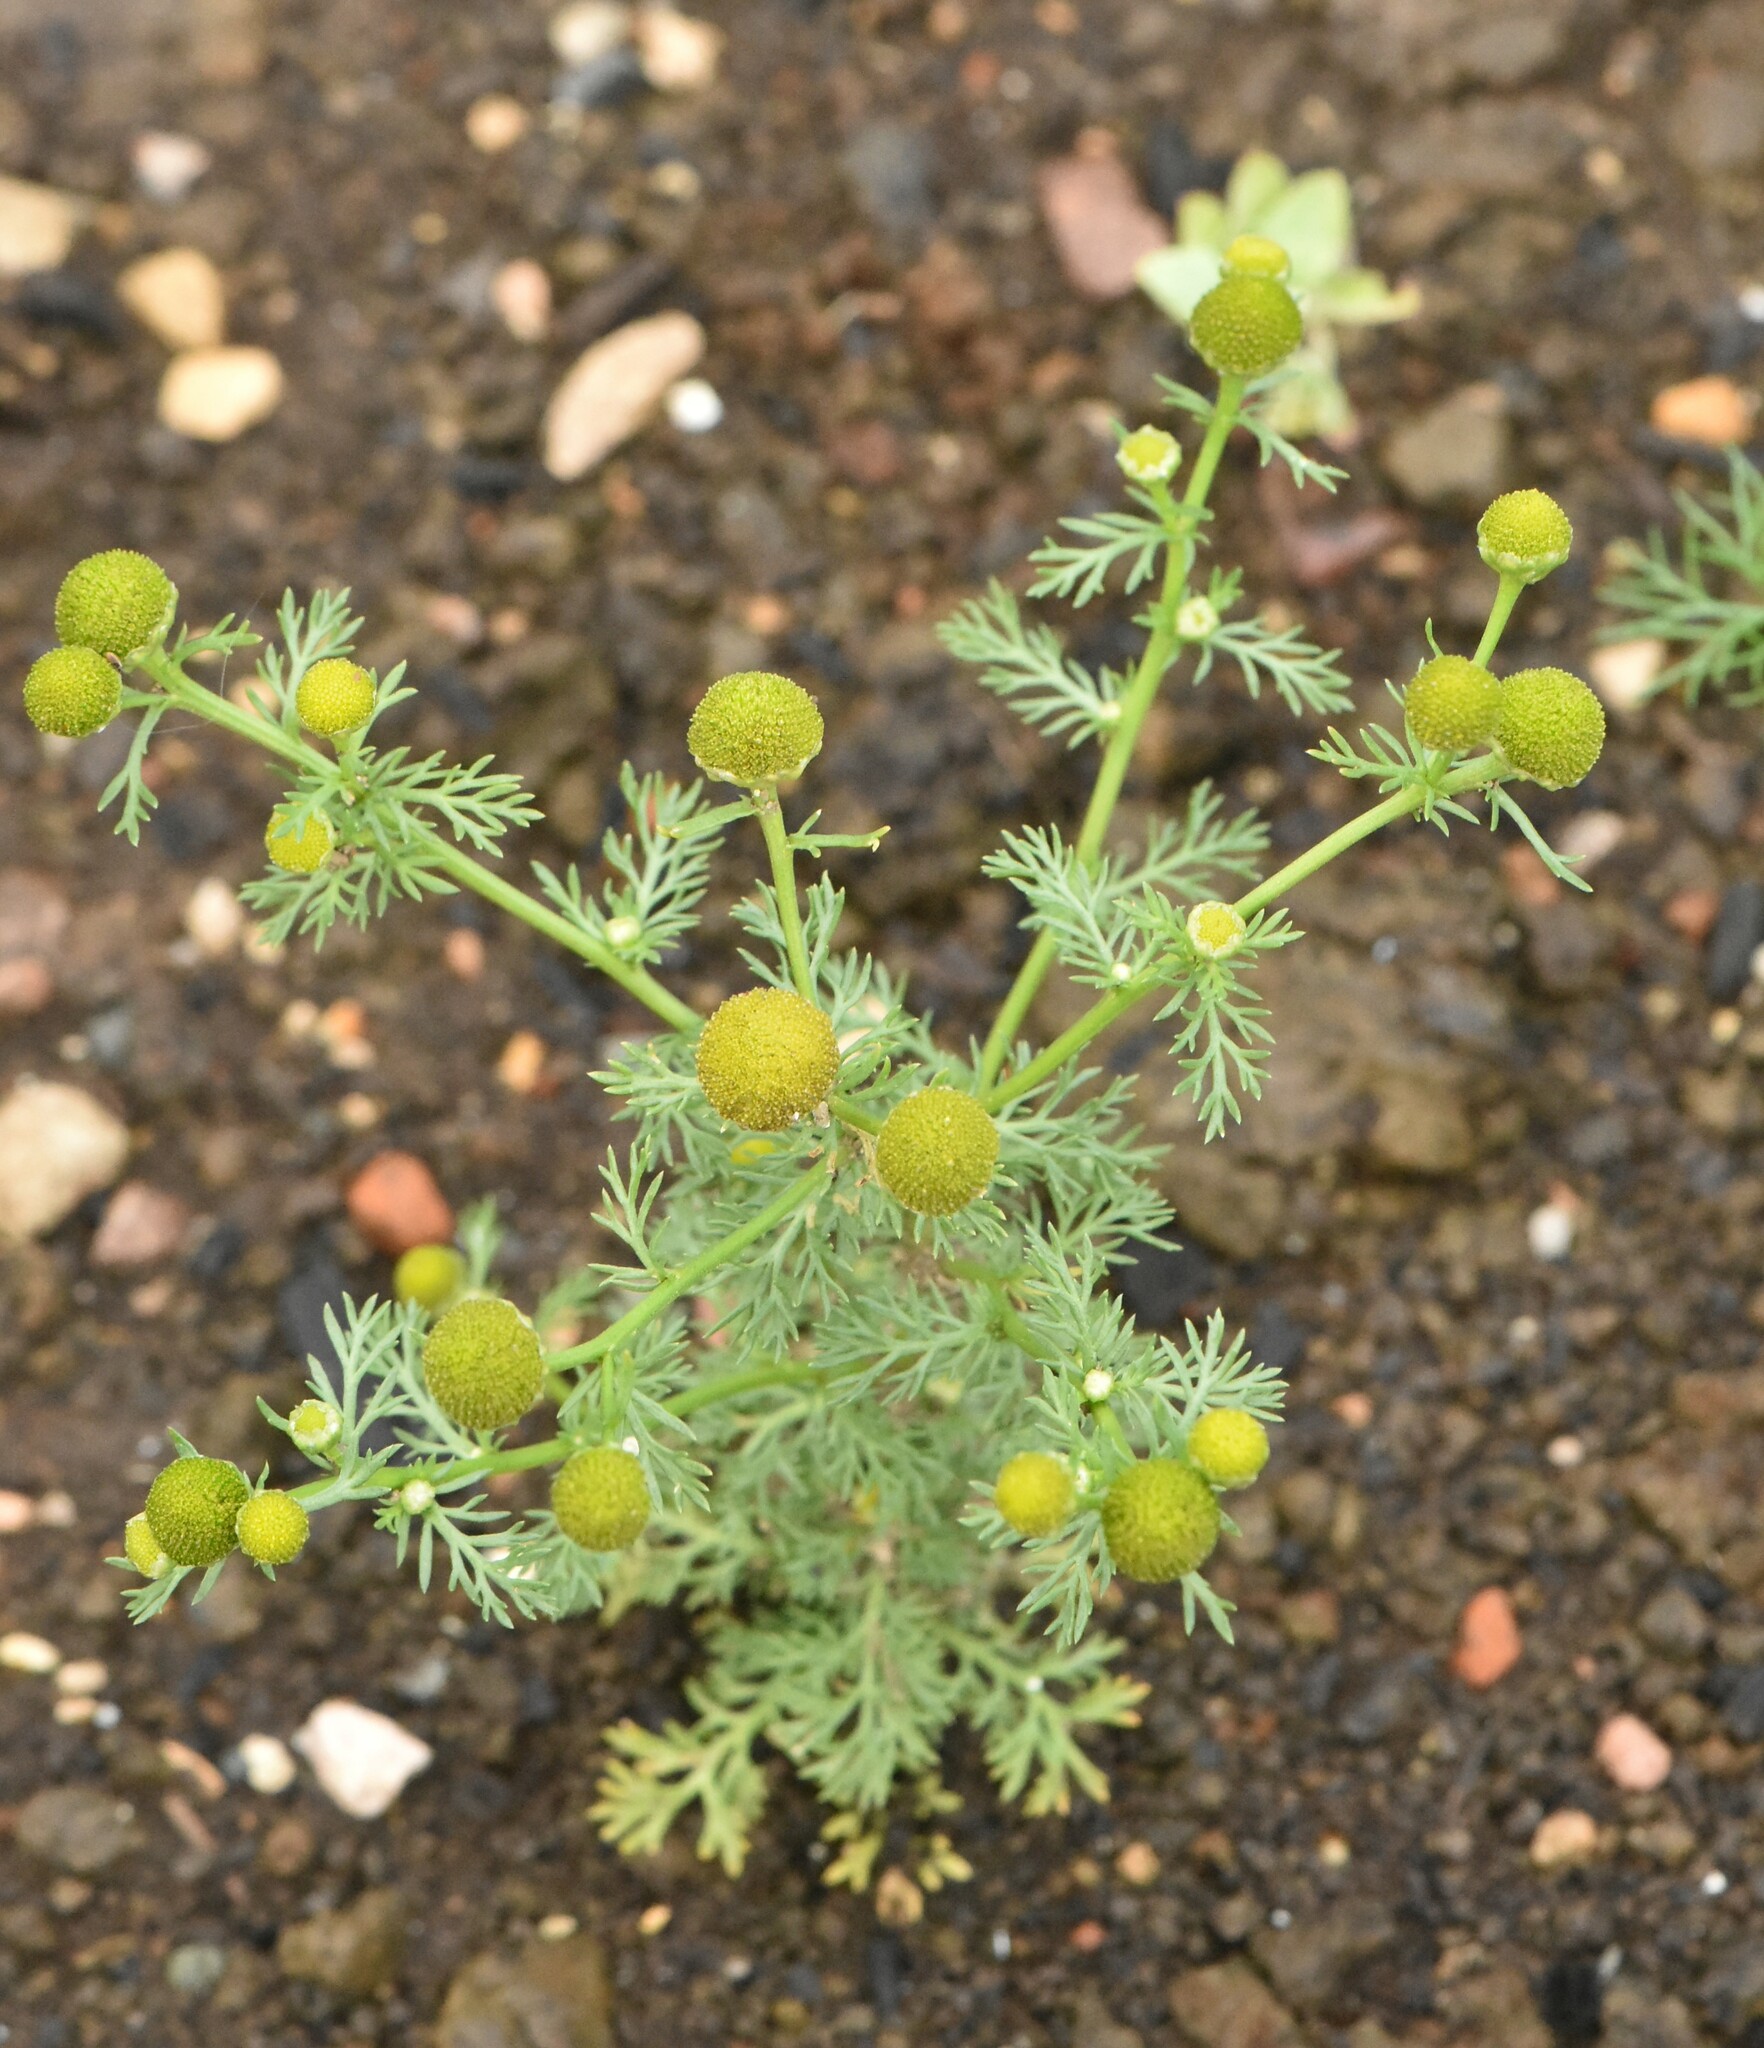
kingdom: Plantae
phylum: Tracheophyta
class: Magnoliopsida
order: Asterales
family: Asteraceae
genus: Matricaria
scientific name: Matricaria discoidea
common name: Disc mayweed
